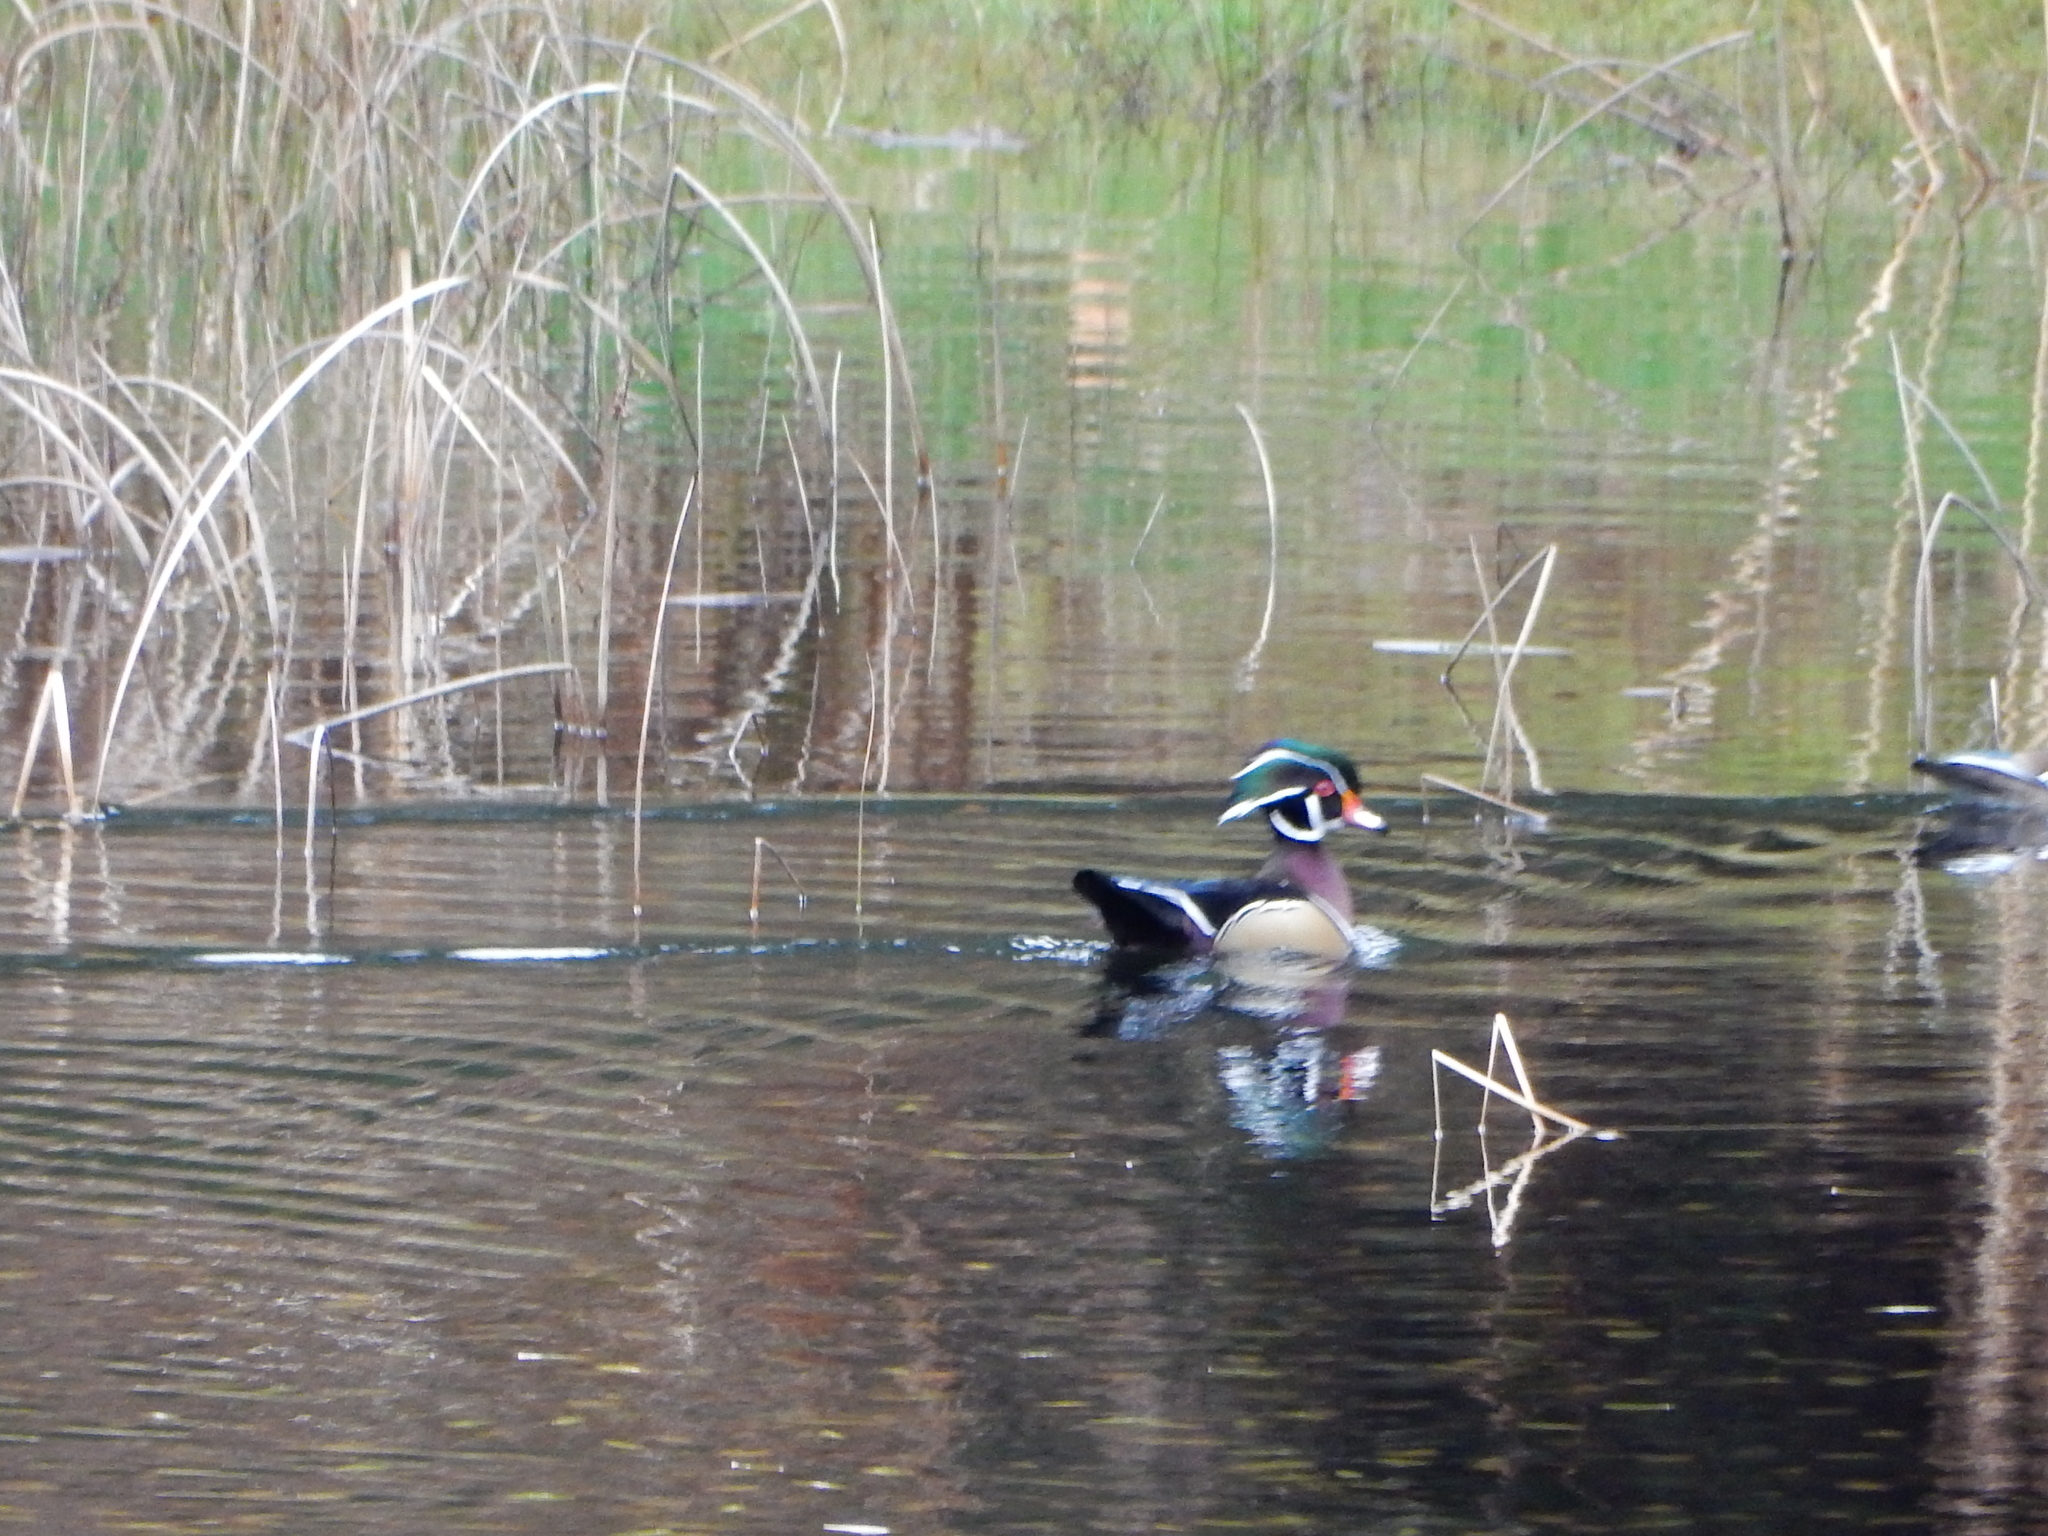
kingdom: Animalia
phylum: Chordata
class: Aves
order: Anseriformes
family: Anatidae
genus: Aix
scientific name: Aix sponsa
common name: Wood duck
